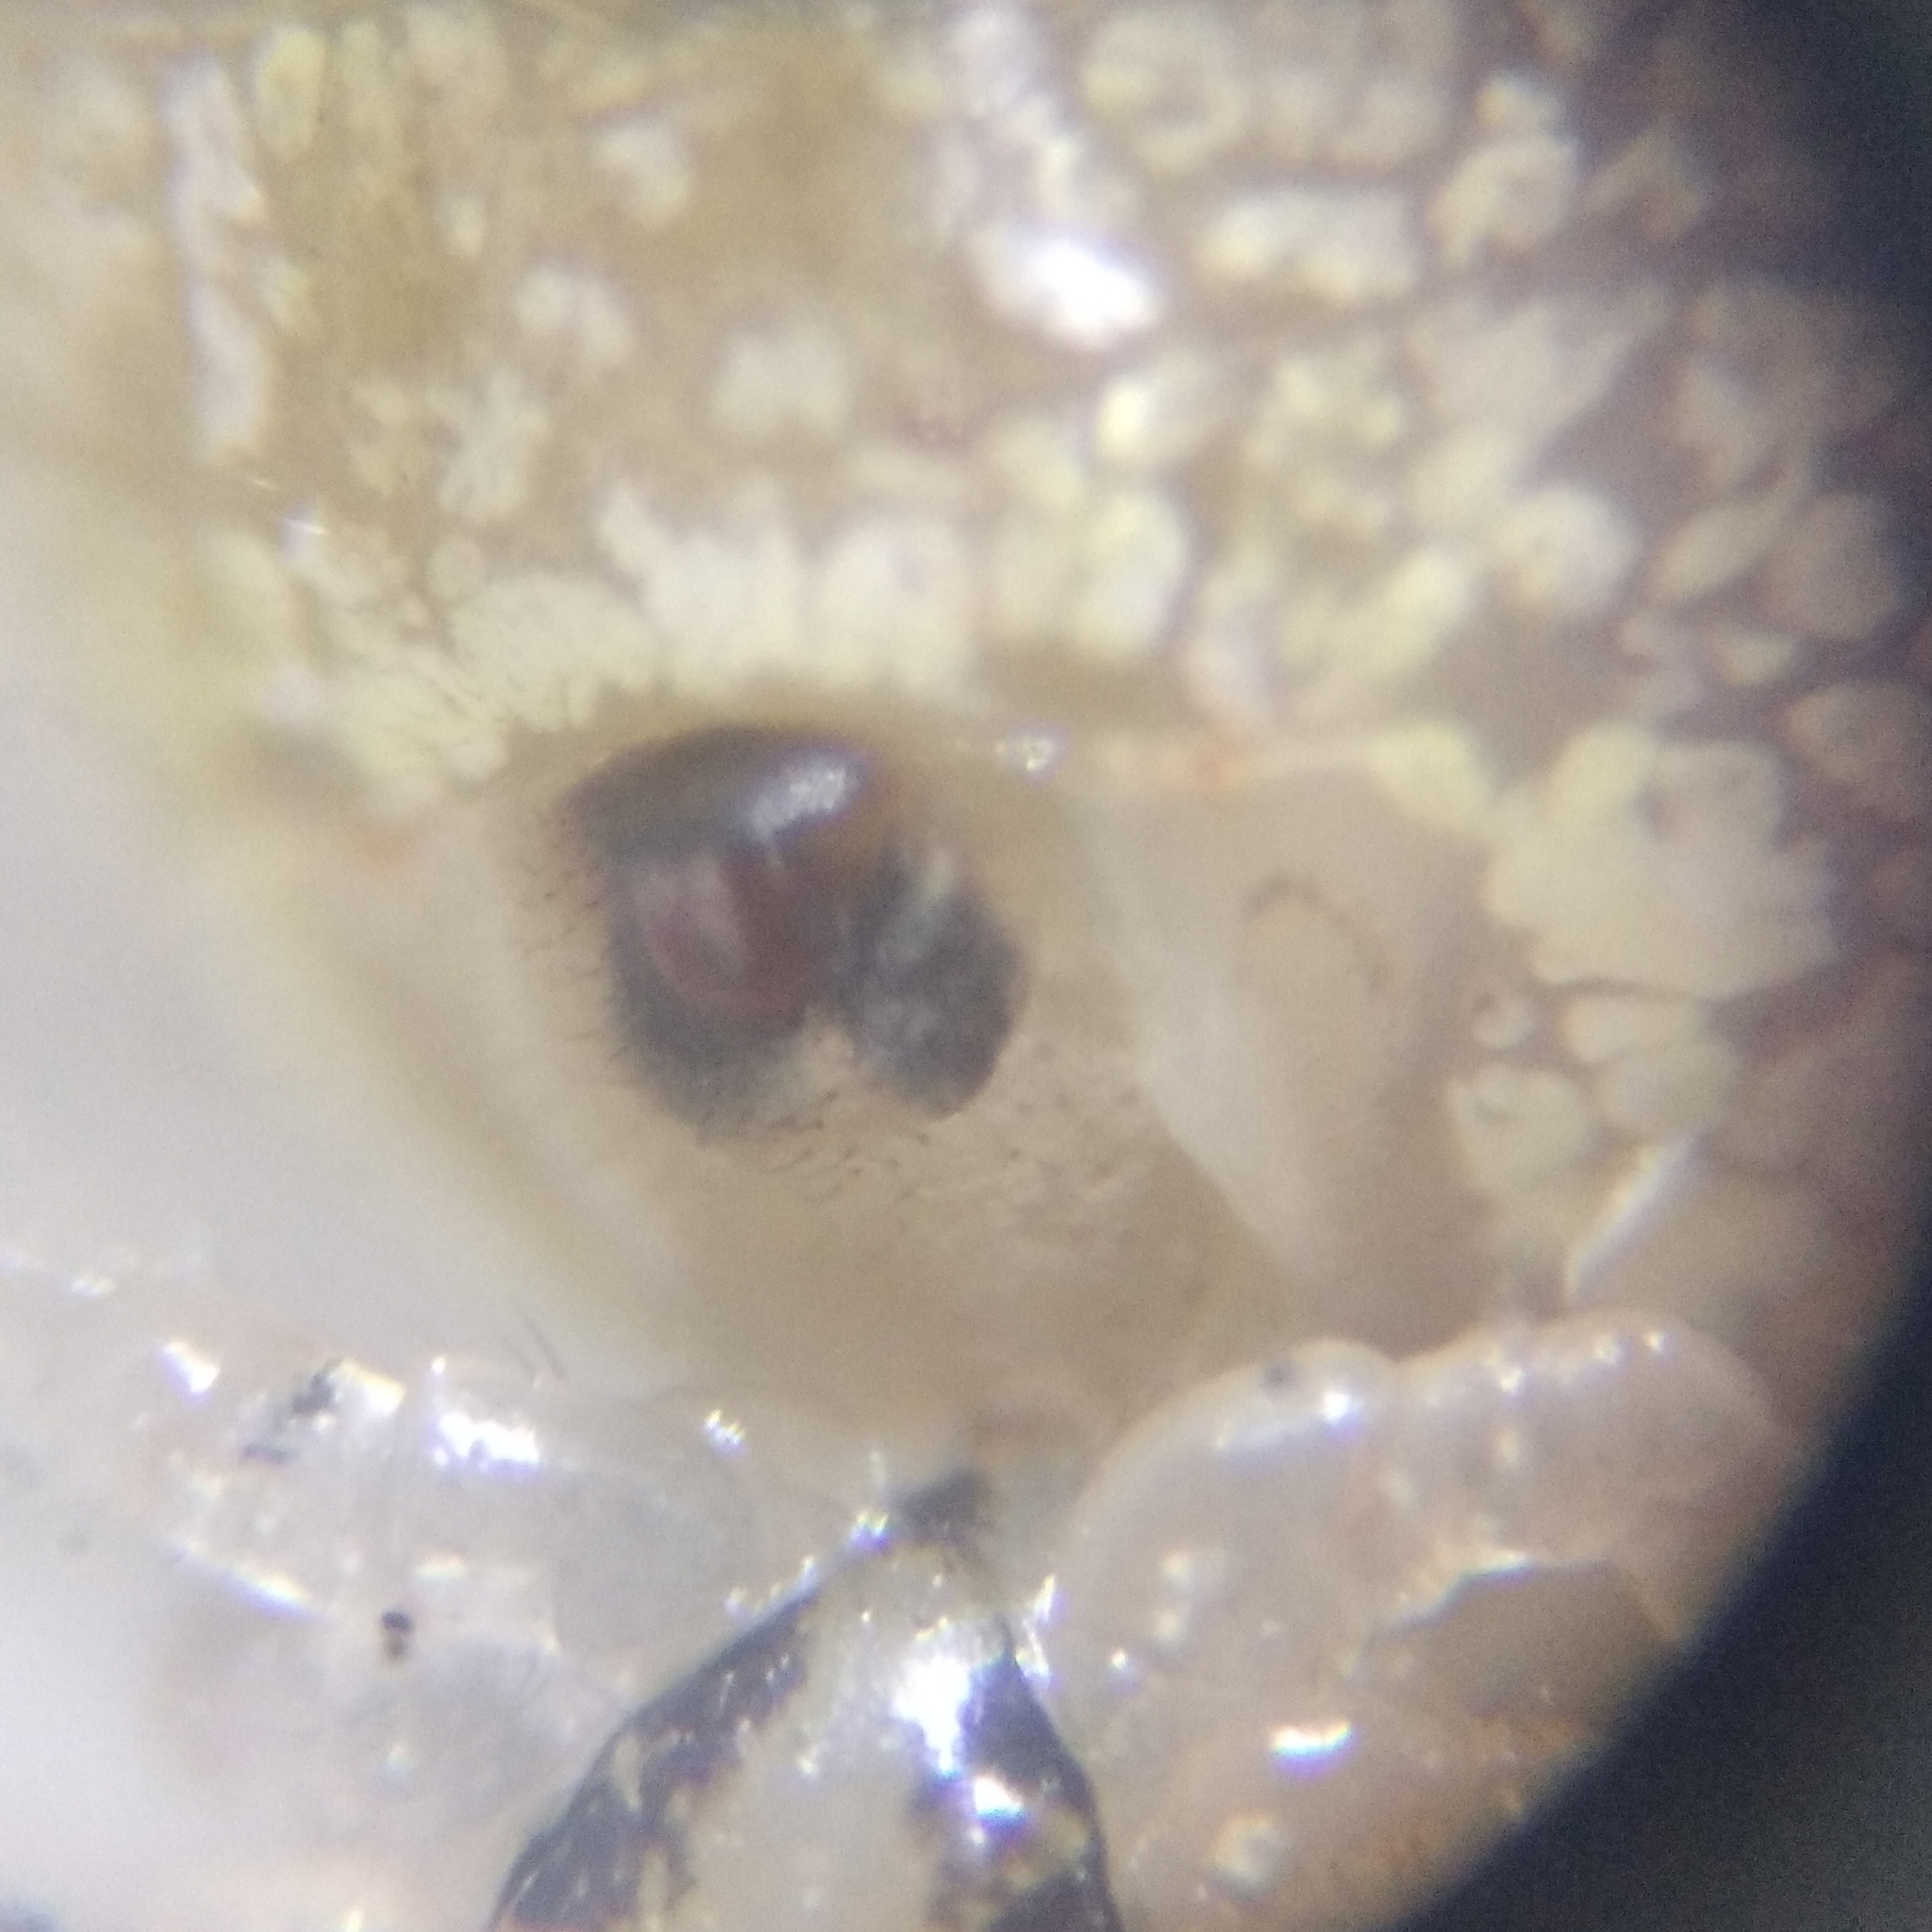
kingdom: Animalia
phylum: Arthropoda
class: Arachnida
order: Araneae
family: Theridiidae
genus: Theridion
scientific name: Theridion varians
